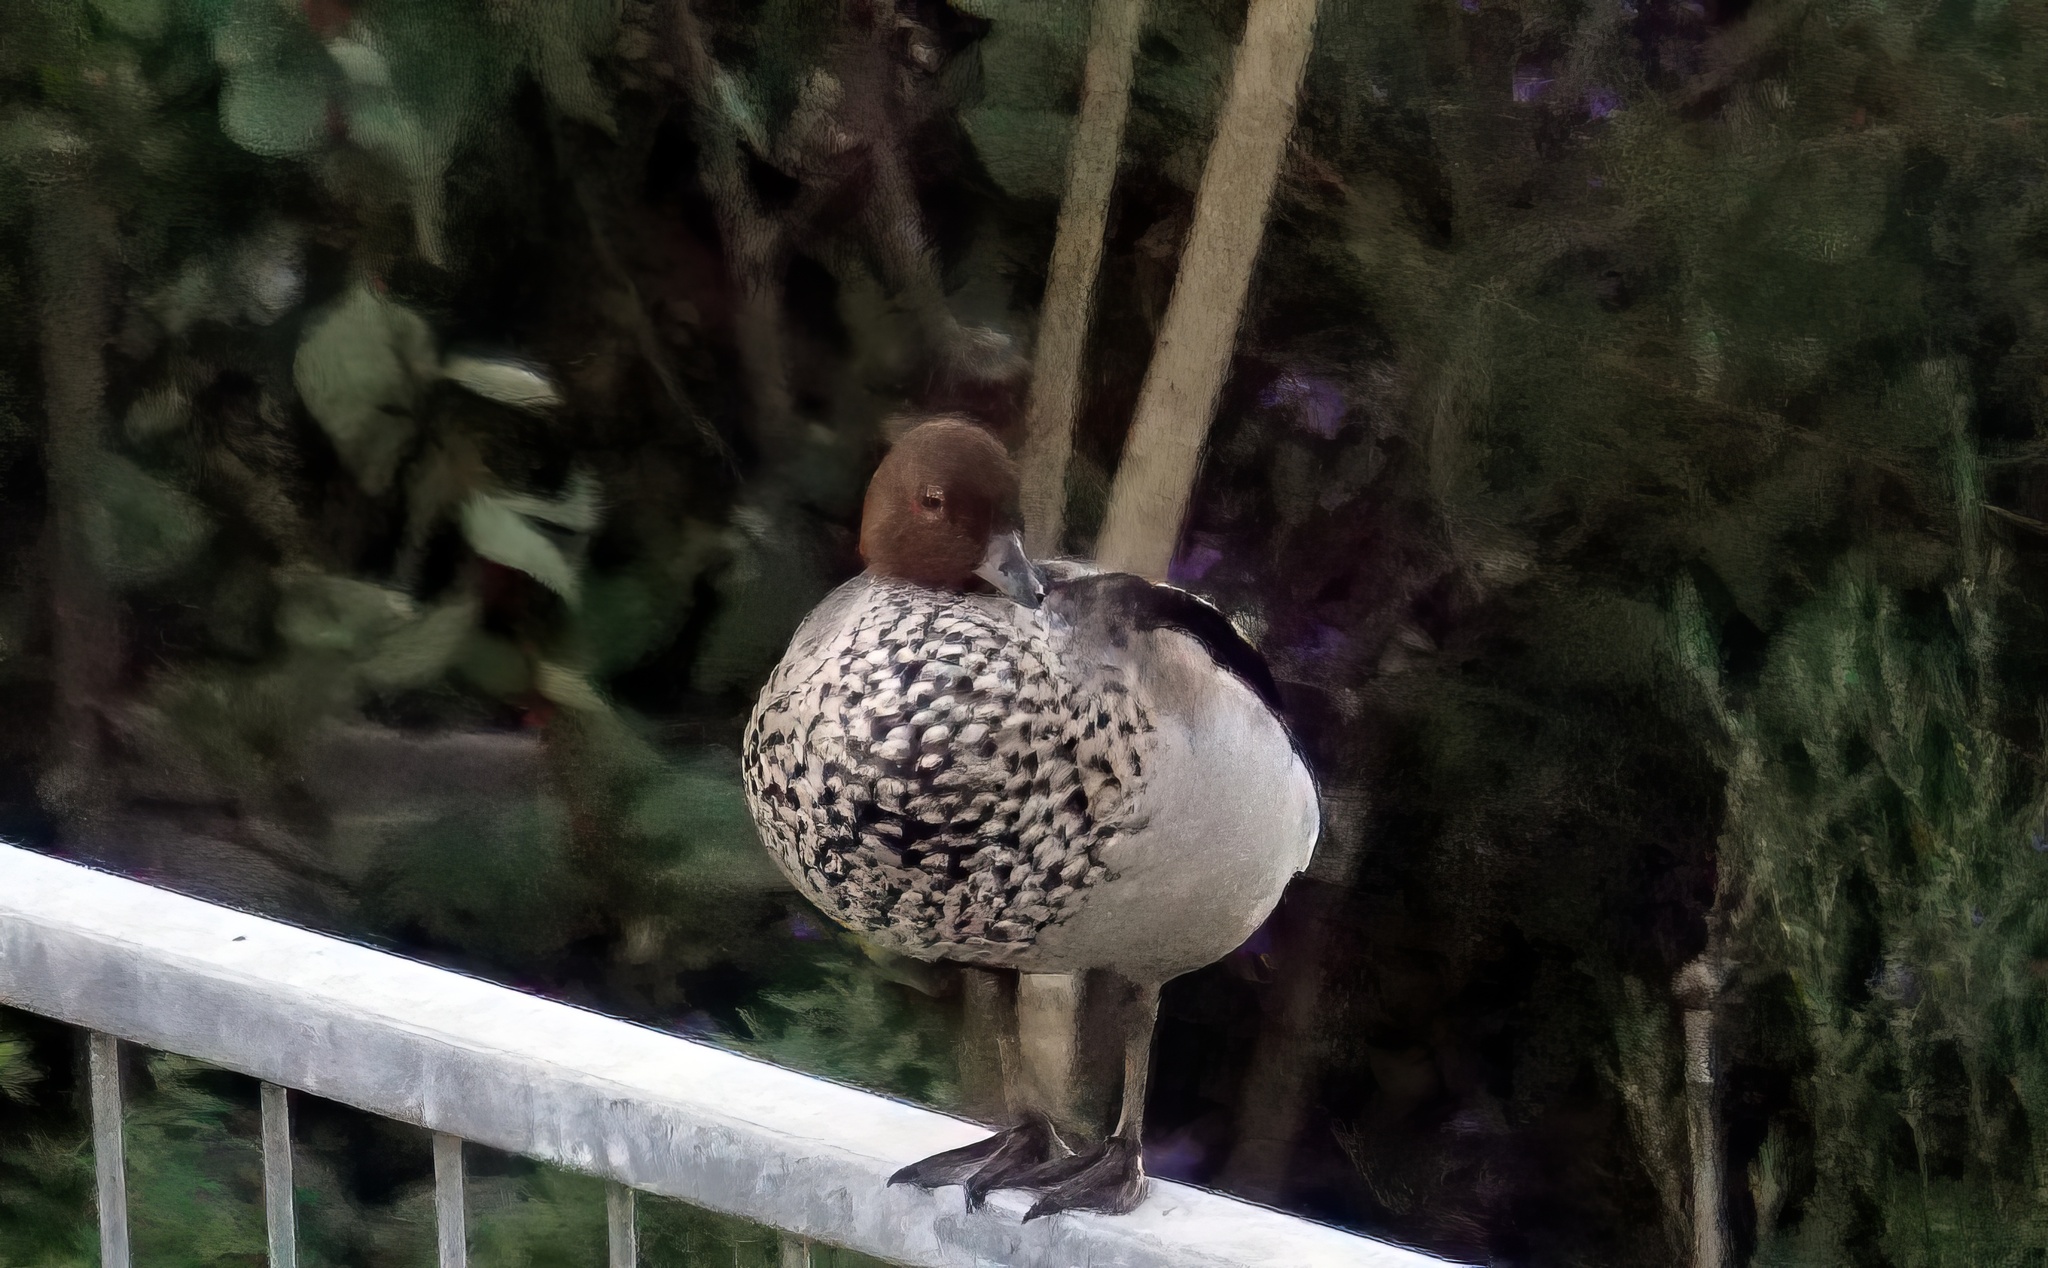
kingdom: Animalia
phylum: Chordata
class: Aves
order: Anseriformes
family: Anatidae
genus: Chenonetta
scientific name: Chenonetta jubata
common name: Maned duck
